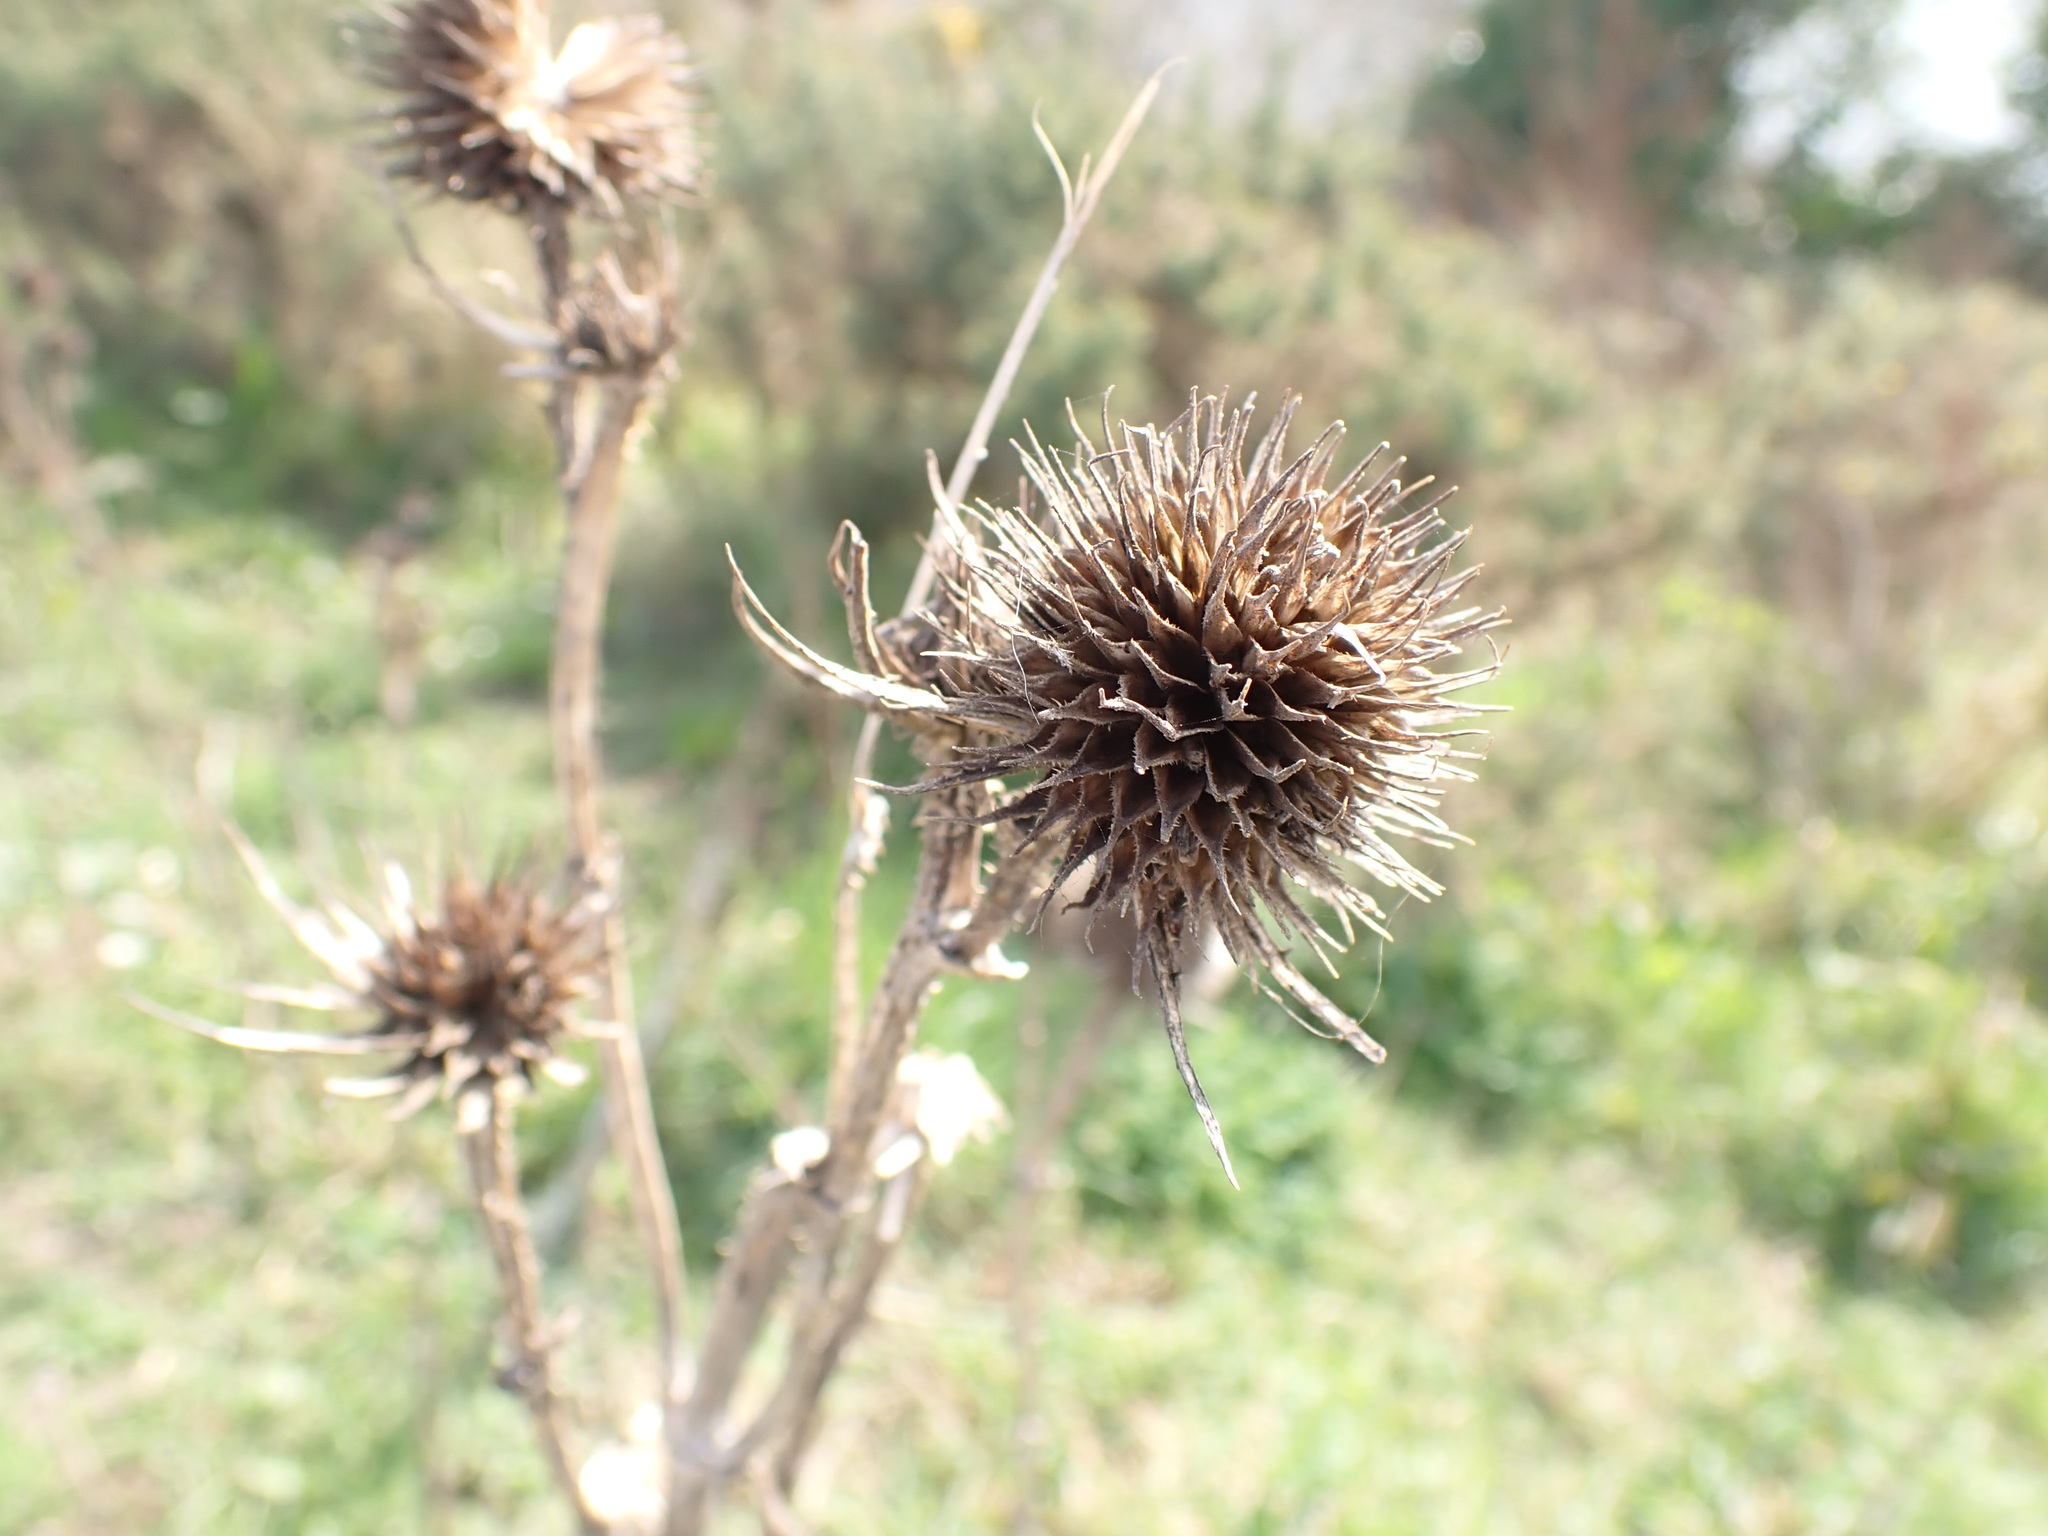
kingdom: Plantae
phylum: Tracheophyta
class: Magnoliopsida
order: Dipsacales
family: Caprifoliaceae
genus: Dipsacus
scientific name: Dipsacus fullonum
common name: Teasel
